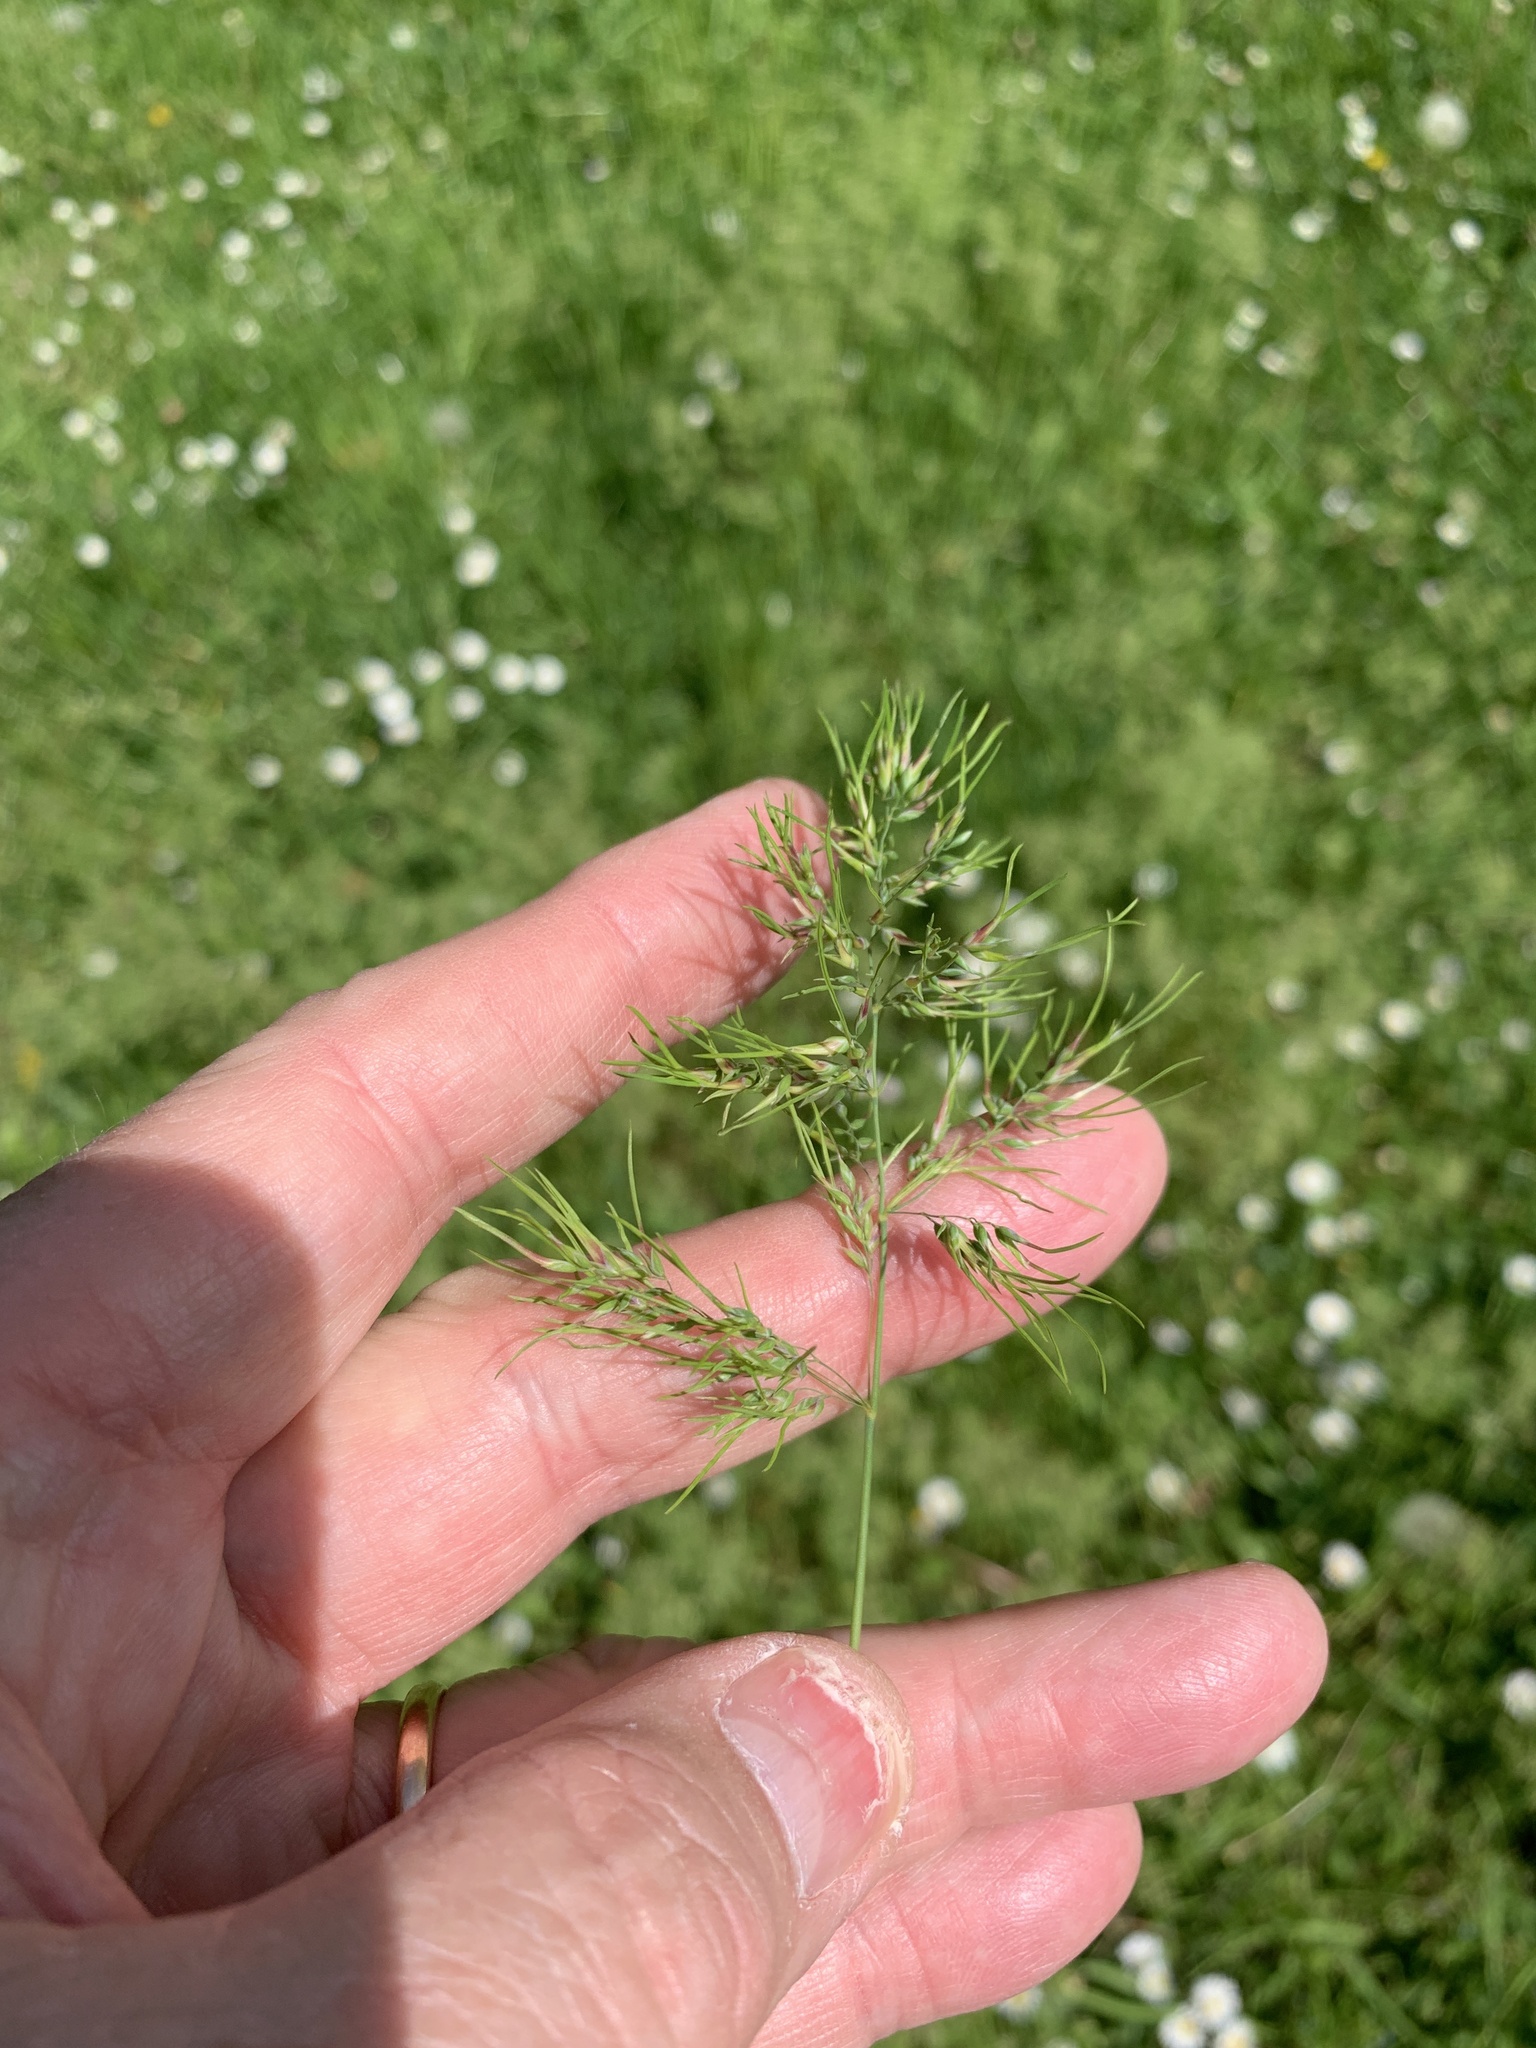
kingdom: Plantae
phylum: Tracheophyta
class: Liliopsida
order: Poales
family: Poaceae
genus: Poa
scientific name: Poa bulbosa
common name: Bulbous bluegrass
